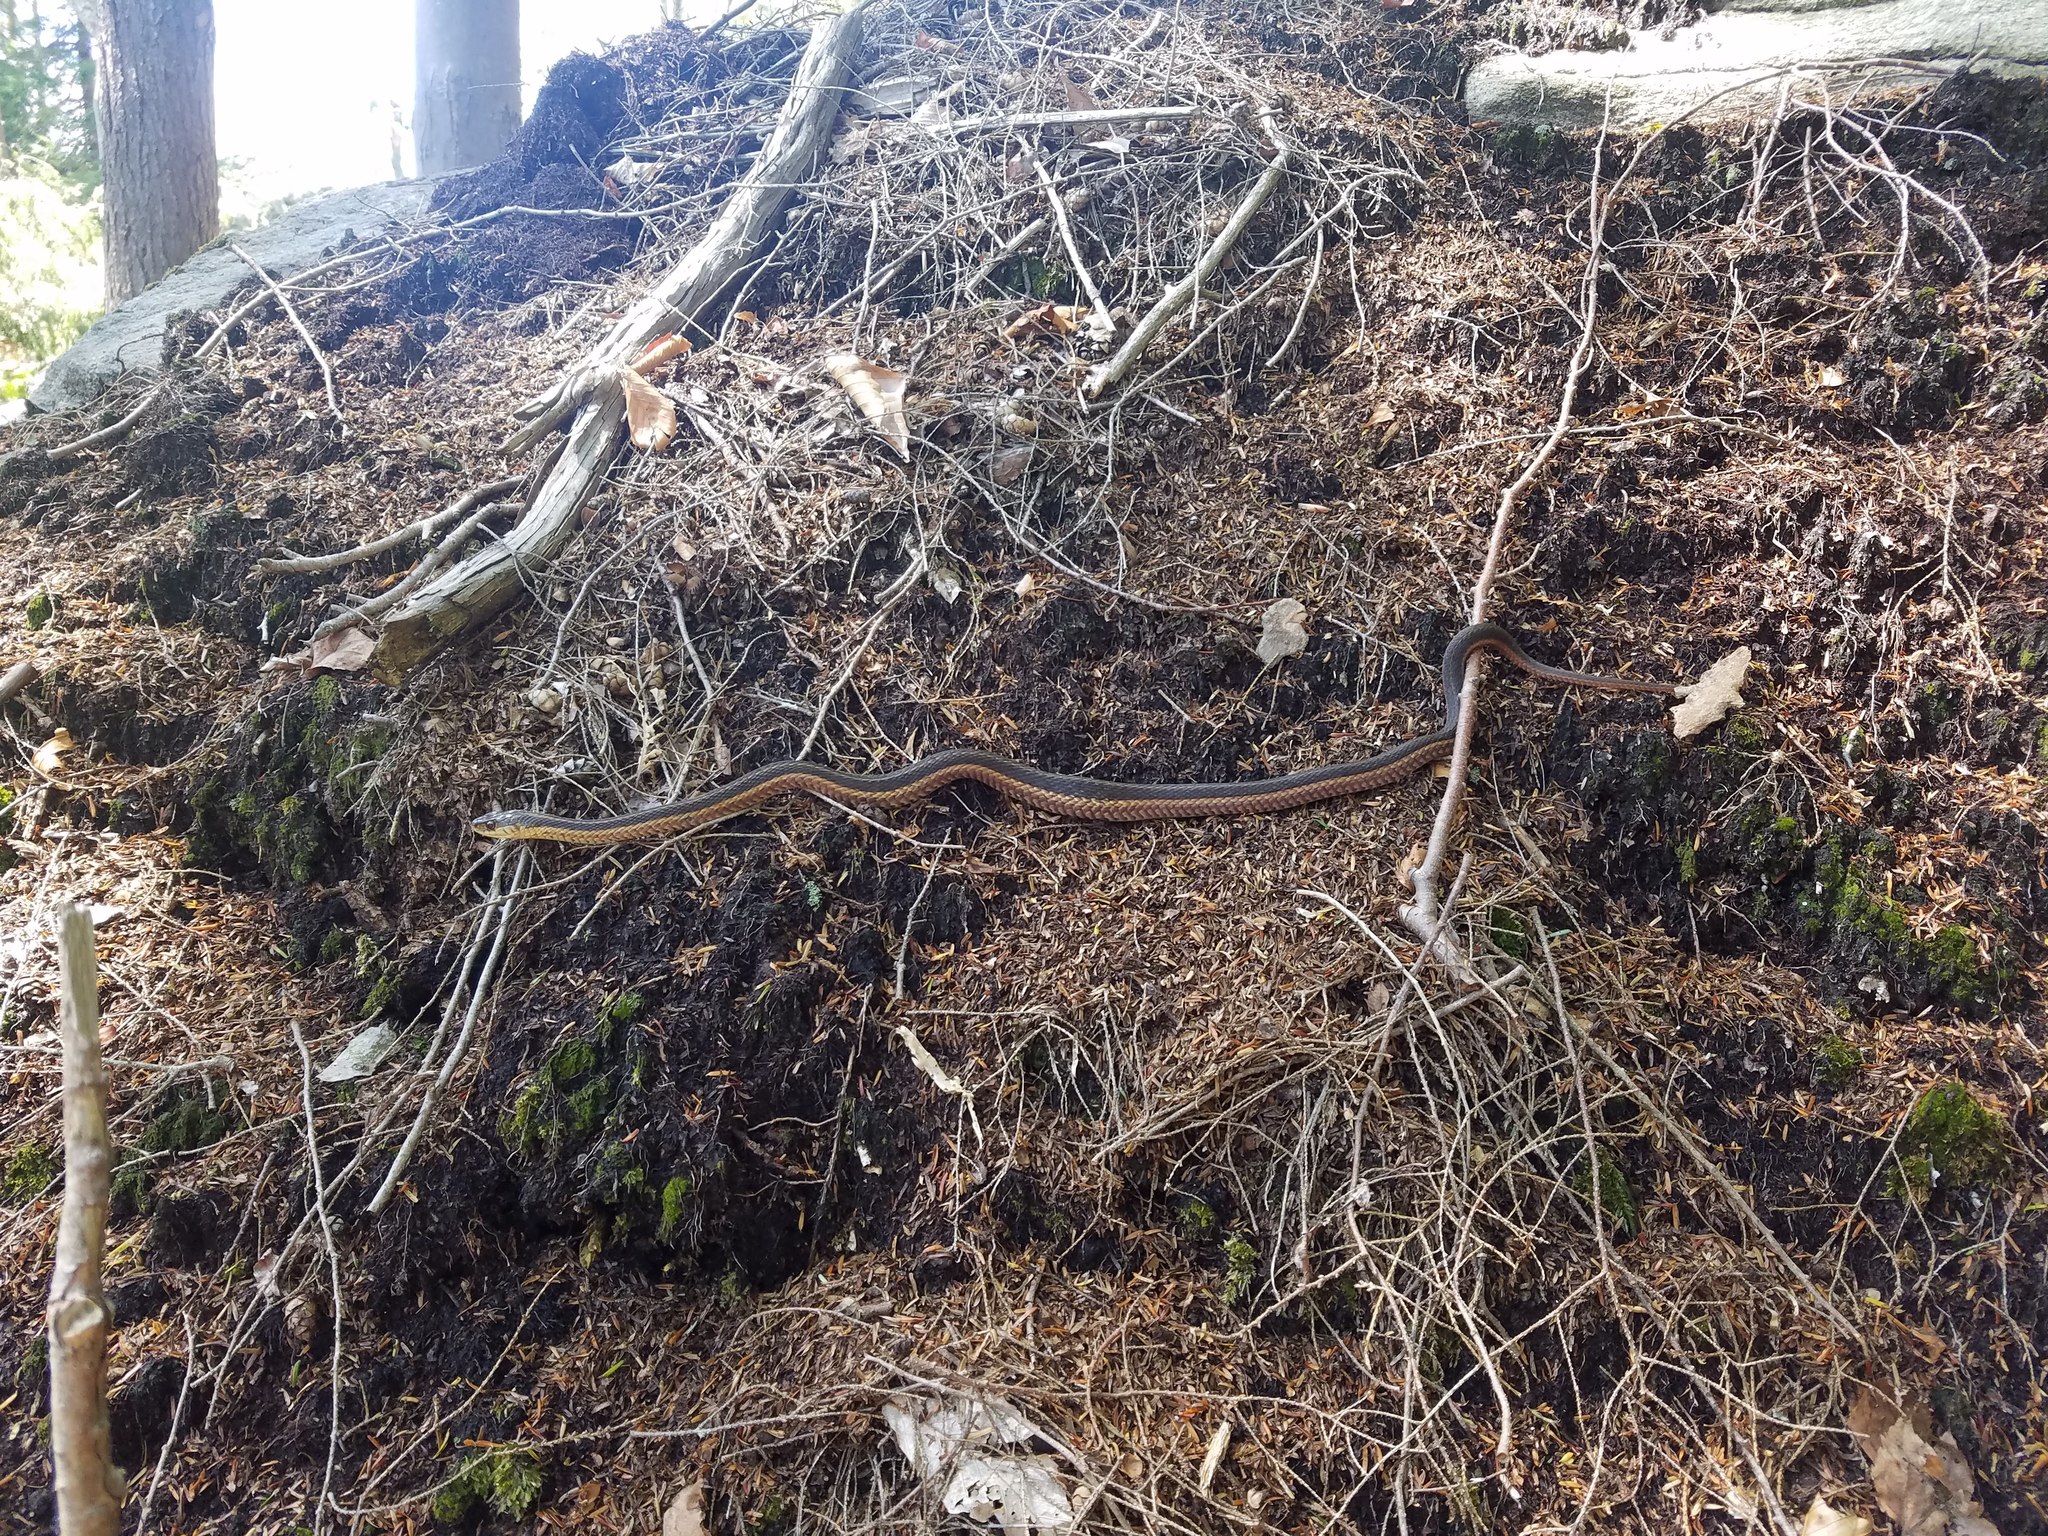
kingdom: Animalia
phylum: Chordata
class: Squamata
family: Colubridae
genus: Thamnophis
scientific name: Thamnophis sirtalis
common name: Common garter snake
